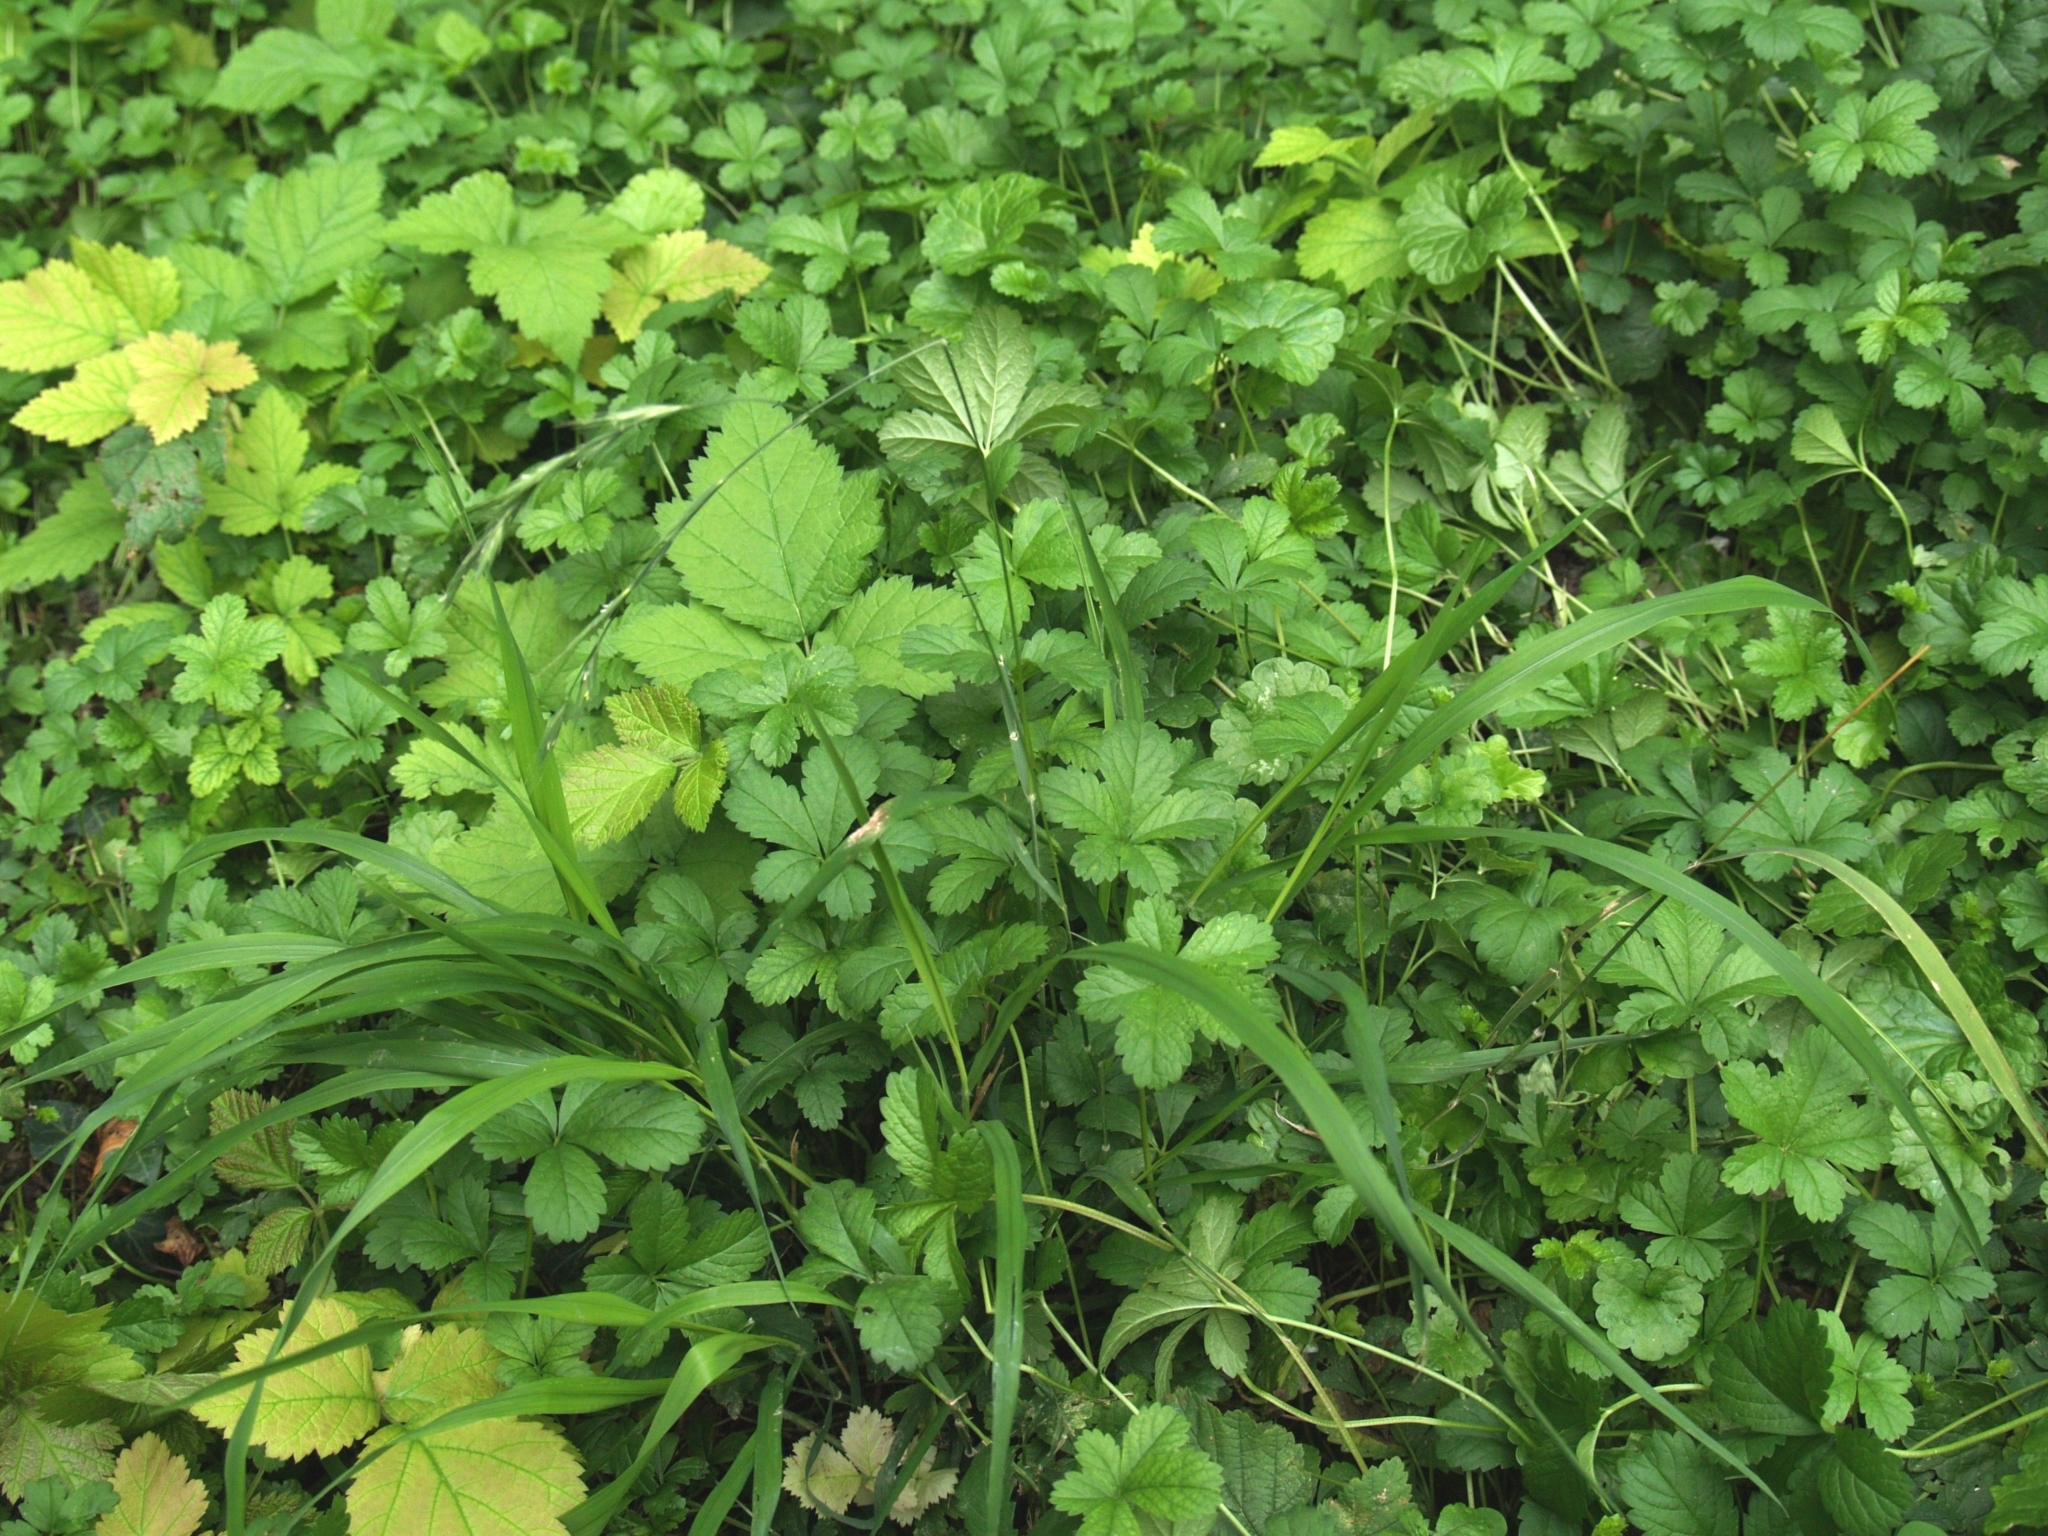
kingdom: Plantae
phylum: Tracheophyta
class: Liliopsida
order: Poales
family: Poaceae
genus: Brachypodium
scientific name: Brachypodium sylvaticum
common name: False-brome
